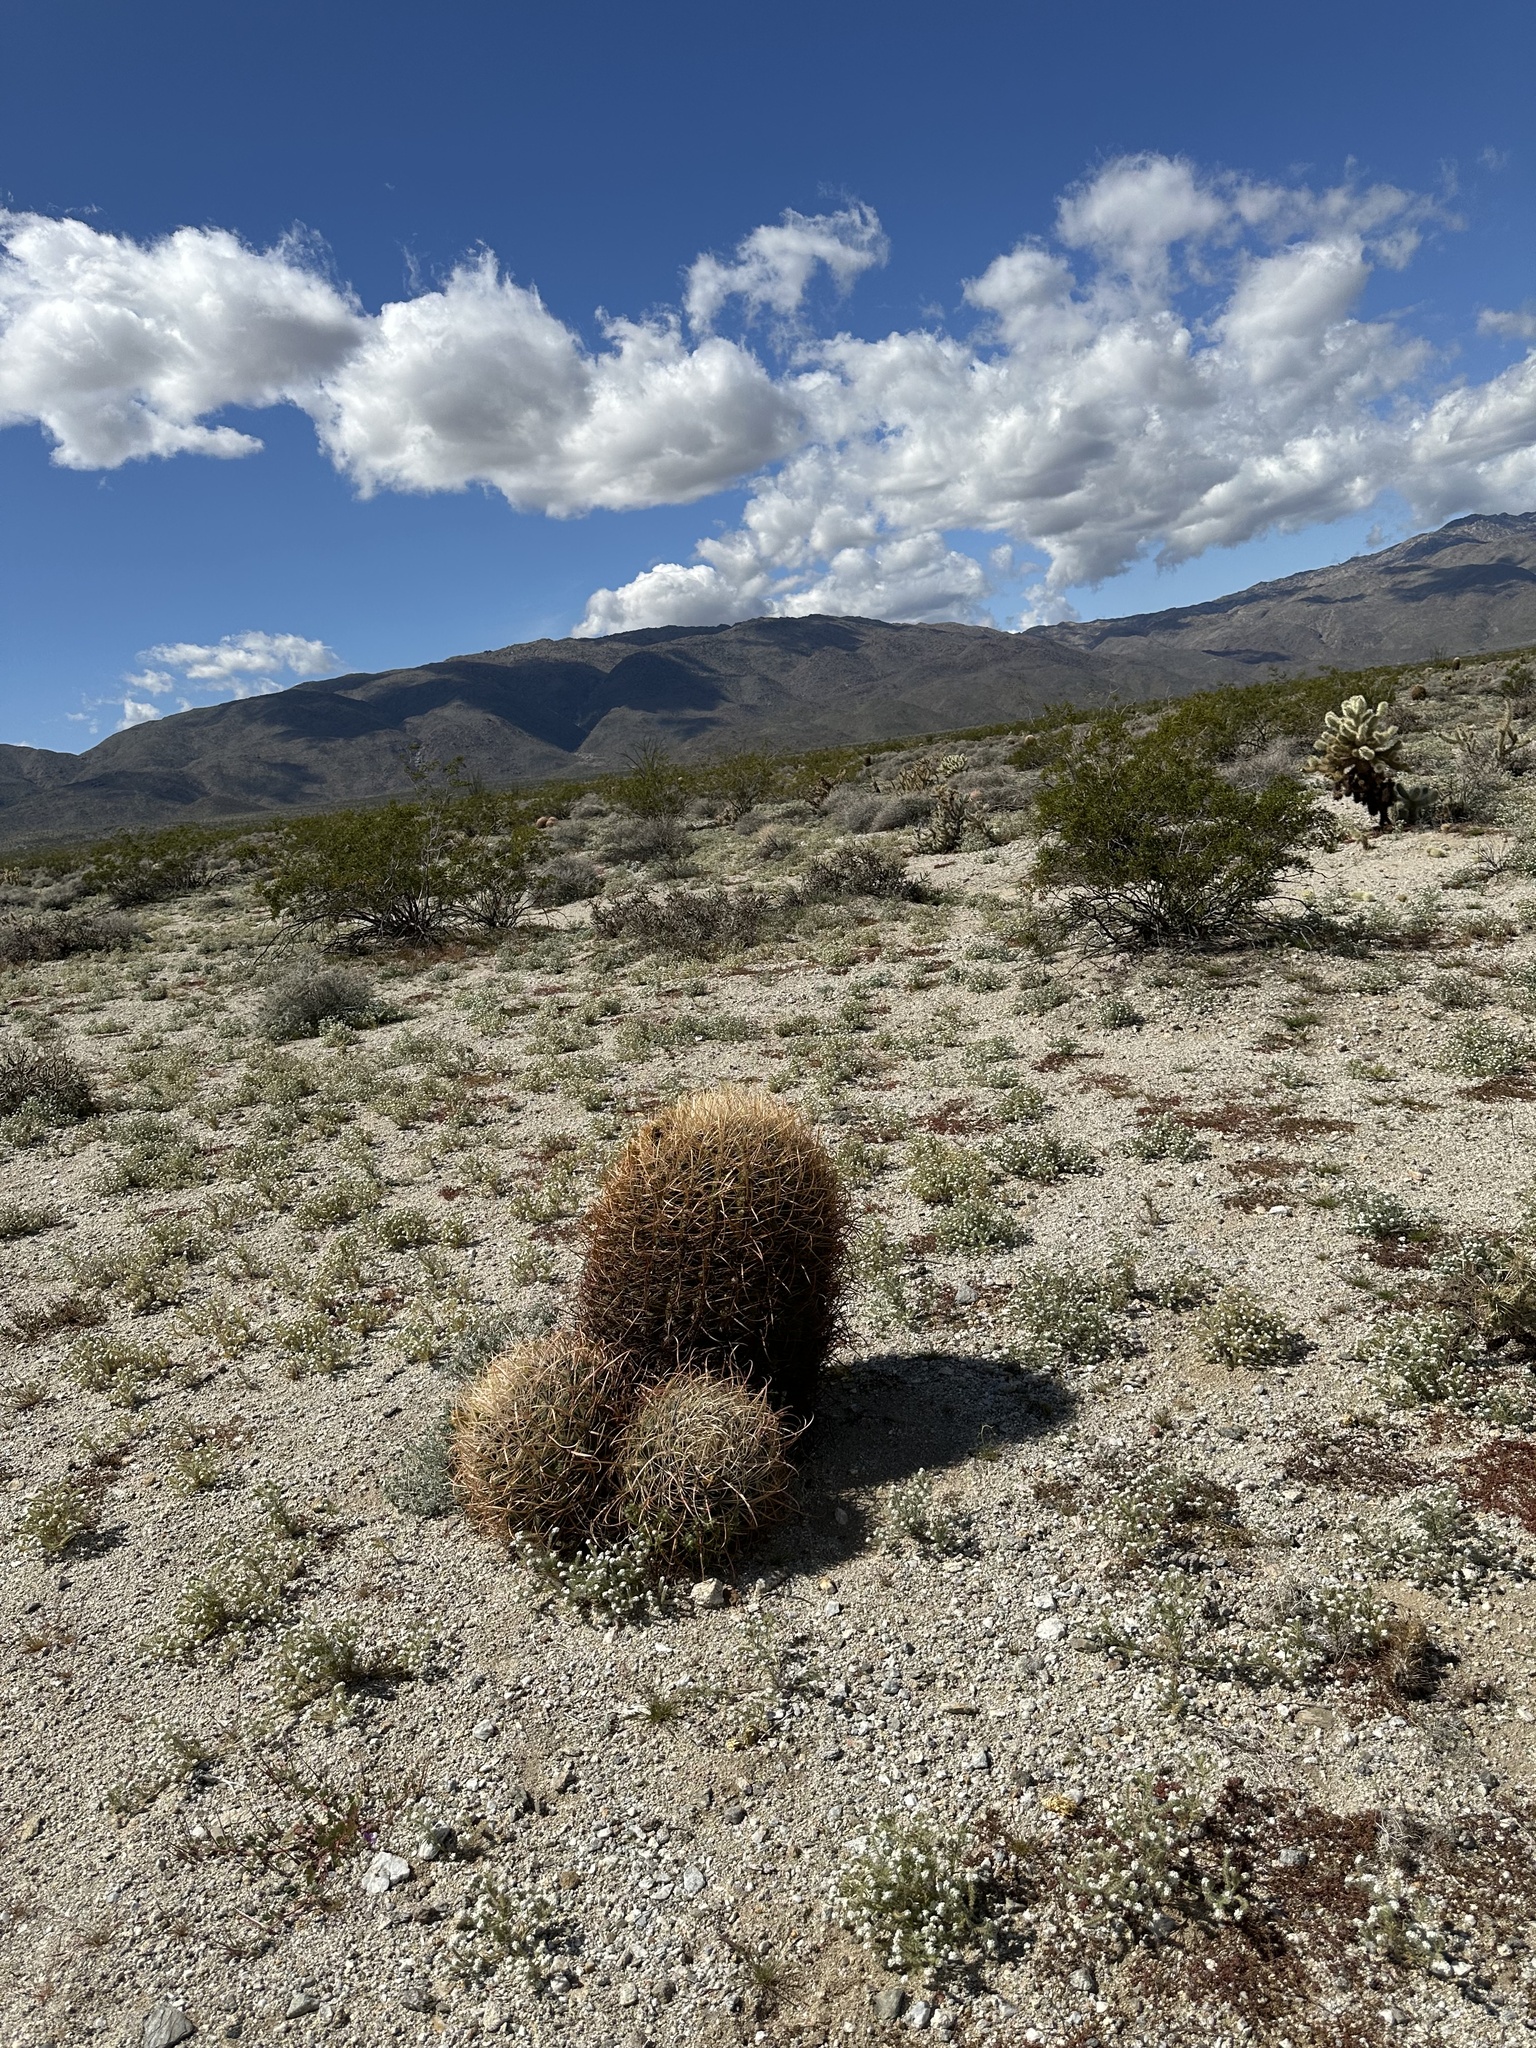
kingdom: Plantae
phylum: Tracheophyta
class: Magnoliopsida
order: Caryophyllales
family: Cactaceae
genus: Ferocactus
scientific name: Ferocactus cylindraceus
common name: California barrel cactus
